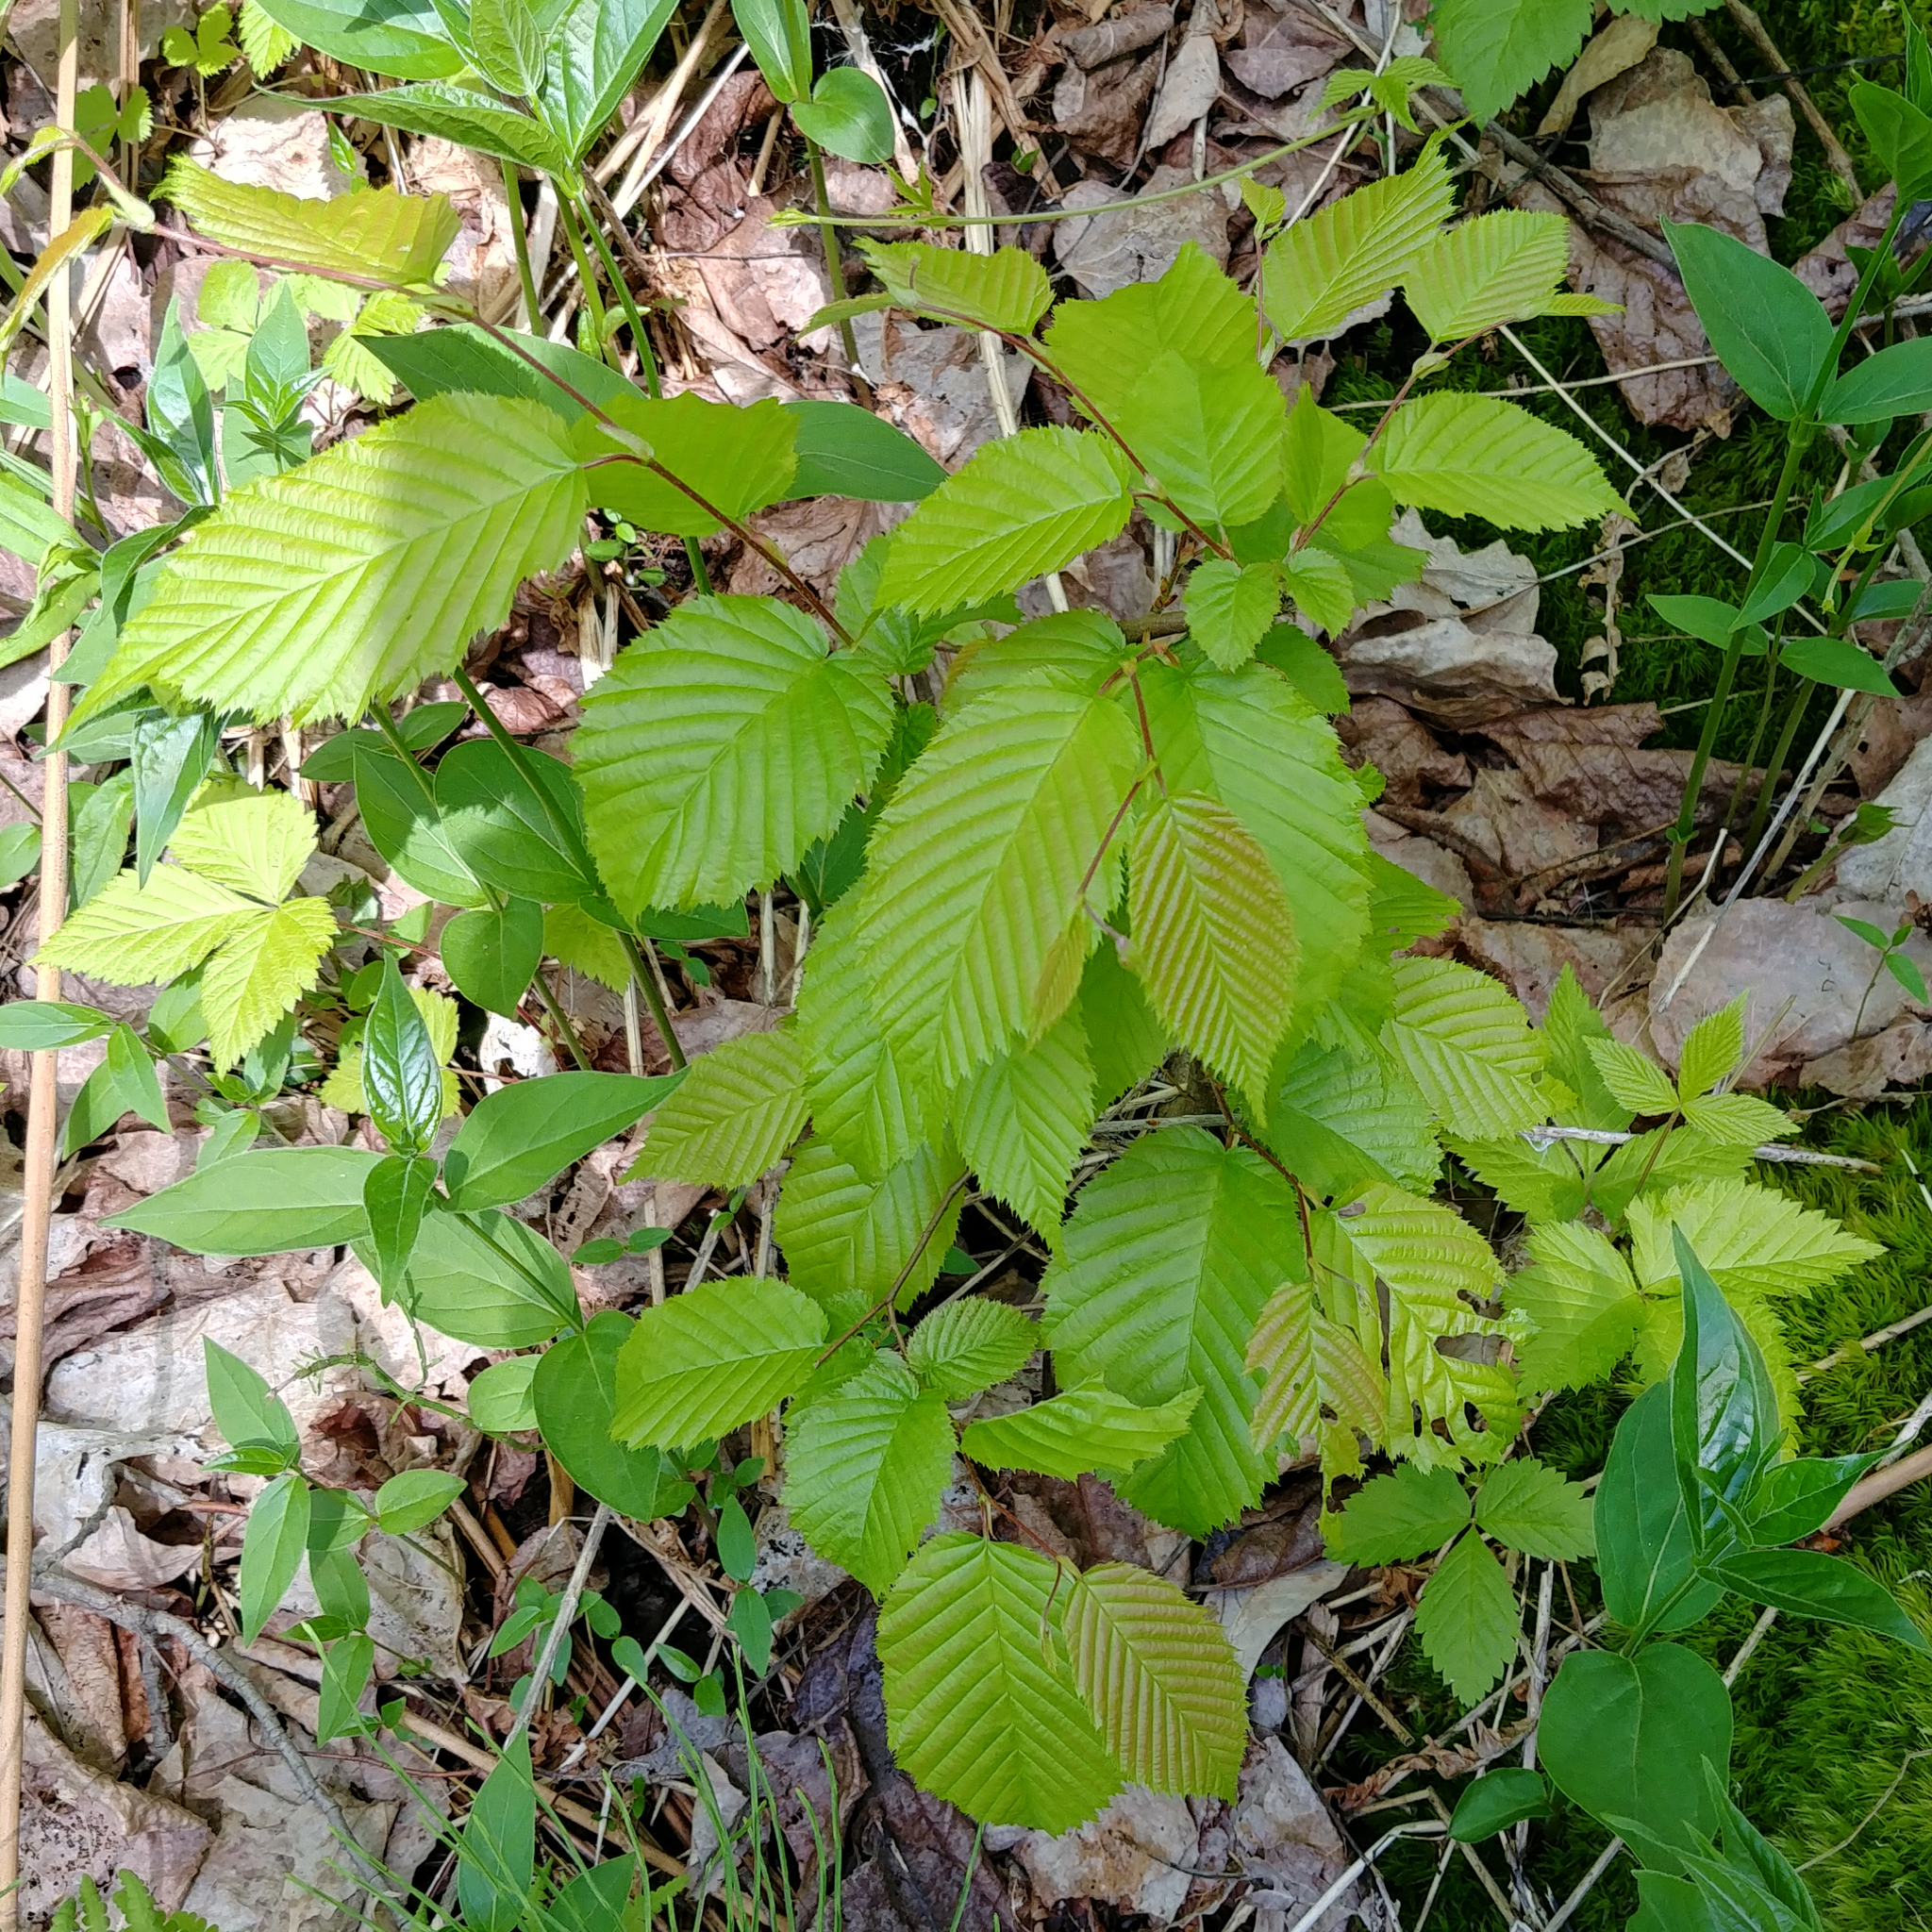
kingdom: Plantae
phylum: Tracheophyta
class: Magnoliopsida
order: Fagales
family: Betulaceae
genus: Carpinus
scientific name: Carpinus caroliniana
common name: American hornbeam
